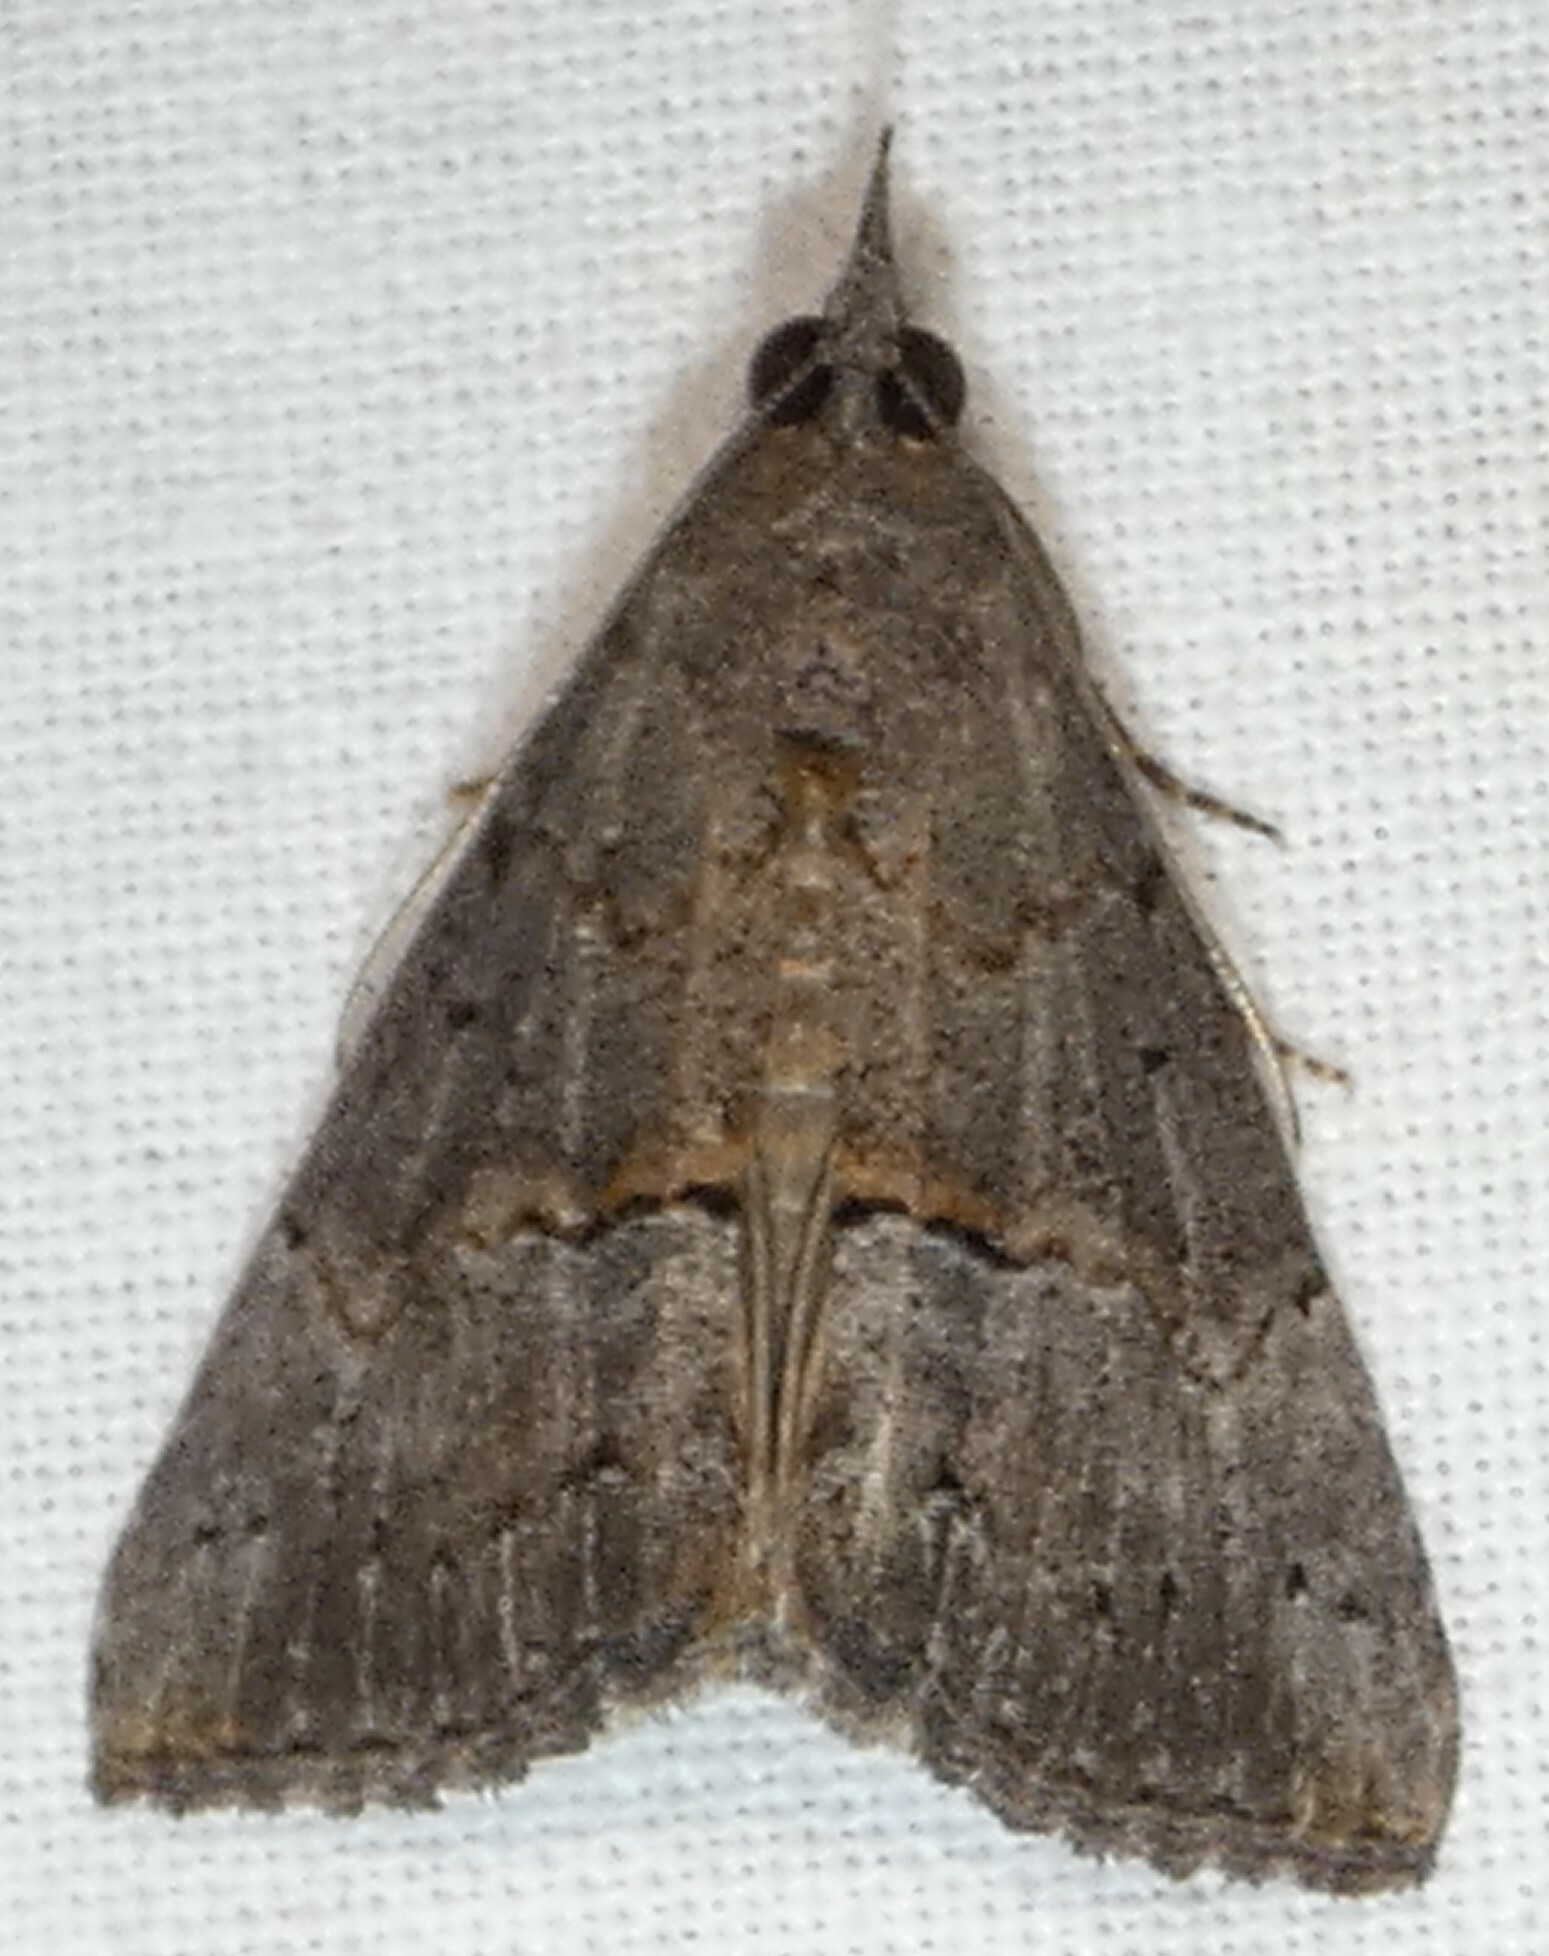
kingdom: Animalia
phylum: Arthropoda
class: Insecta
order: Lepidoptera
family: Erebidae
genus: Hypena
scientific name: Hypena scabra
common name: Green cloverworm
